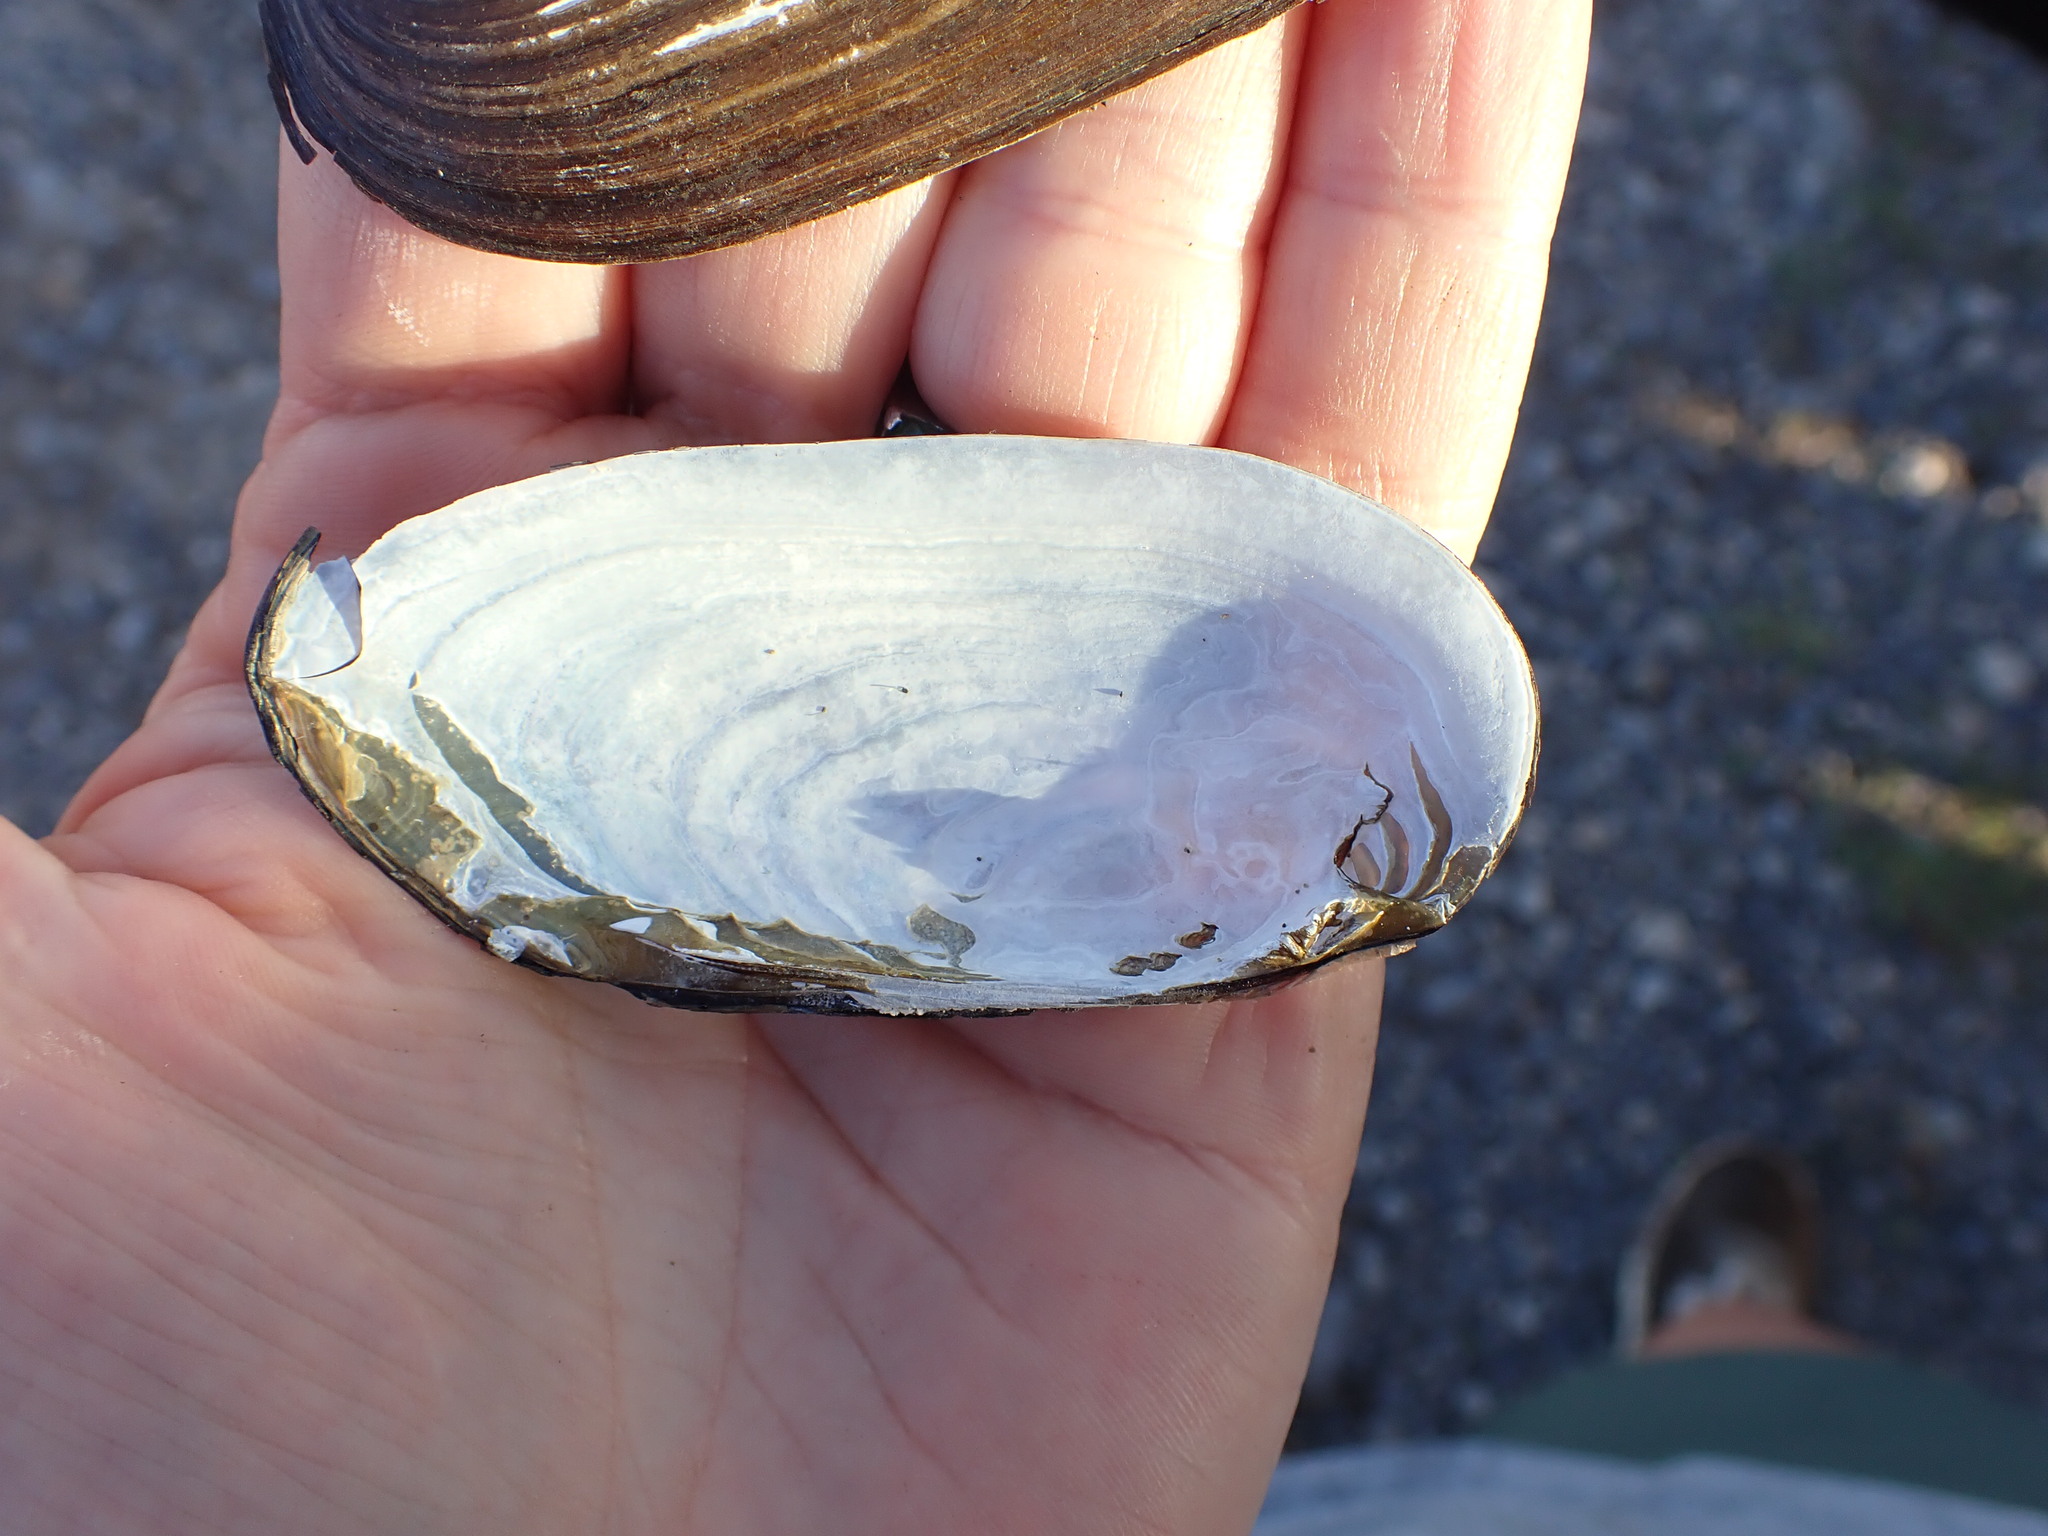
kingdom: Animalia
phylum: Mollusca
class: Bivalvia
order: Unionida
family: Hyriidae
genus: Echyridella
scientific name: Echyridella aucklandica
